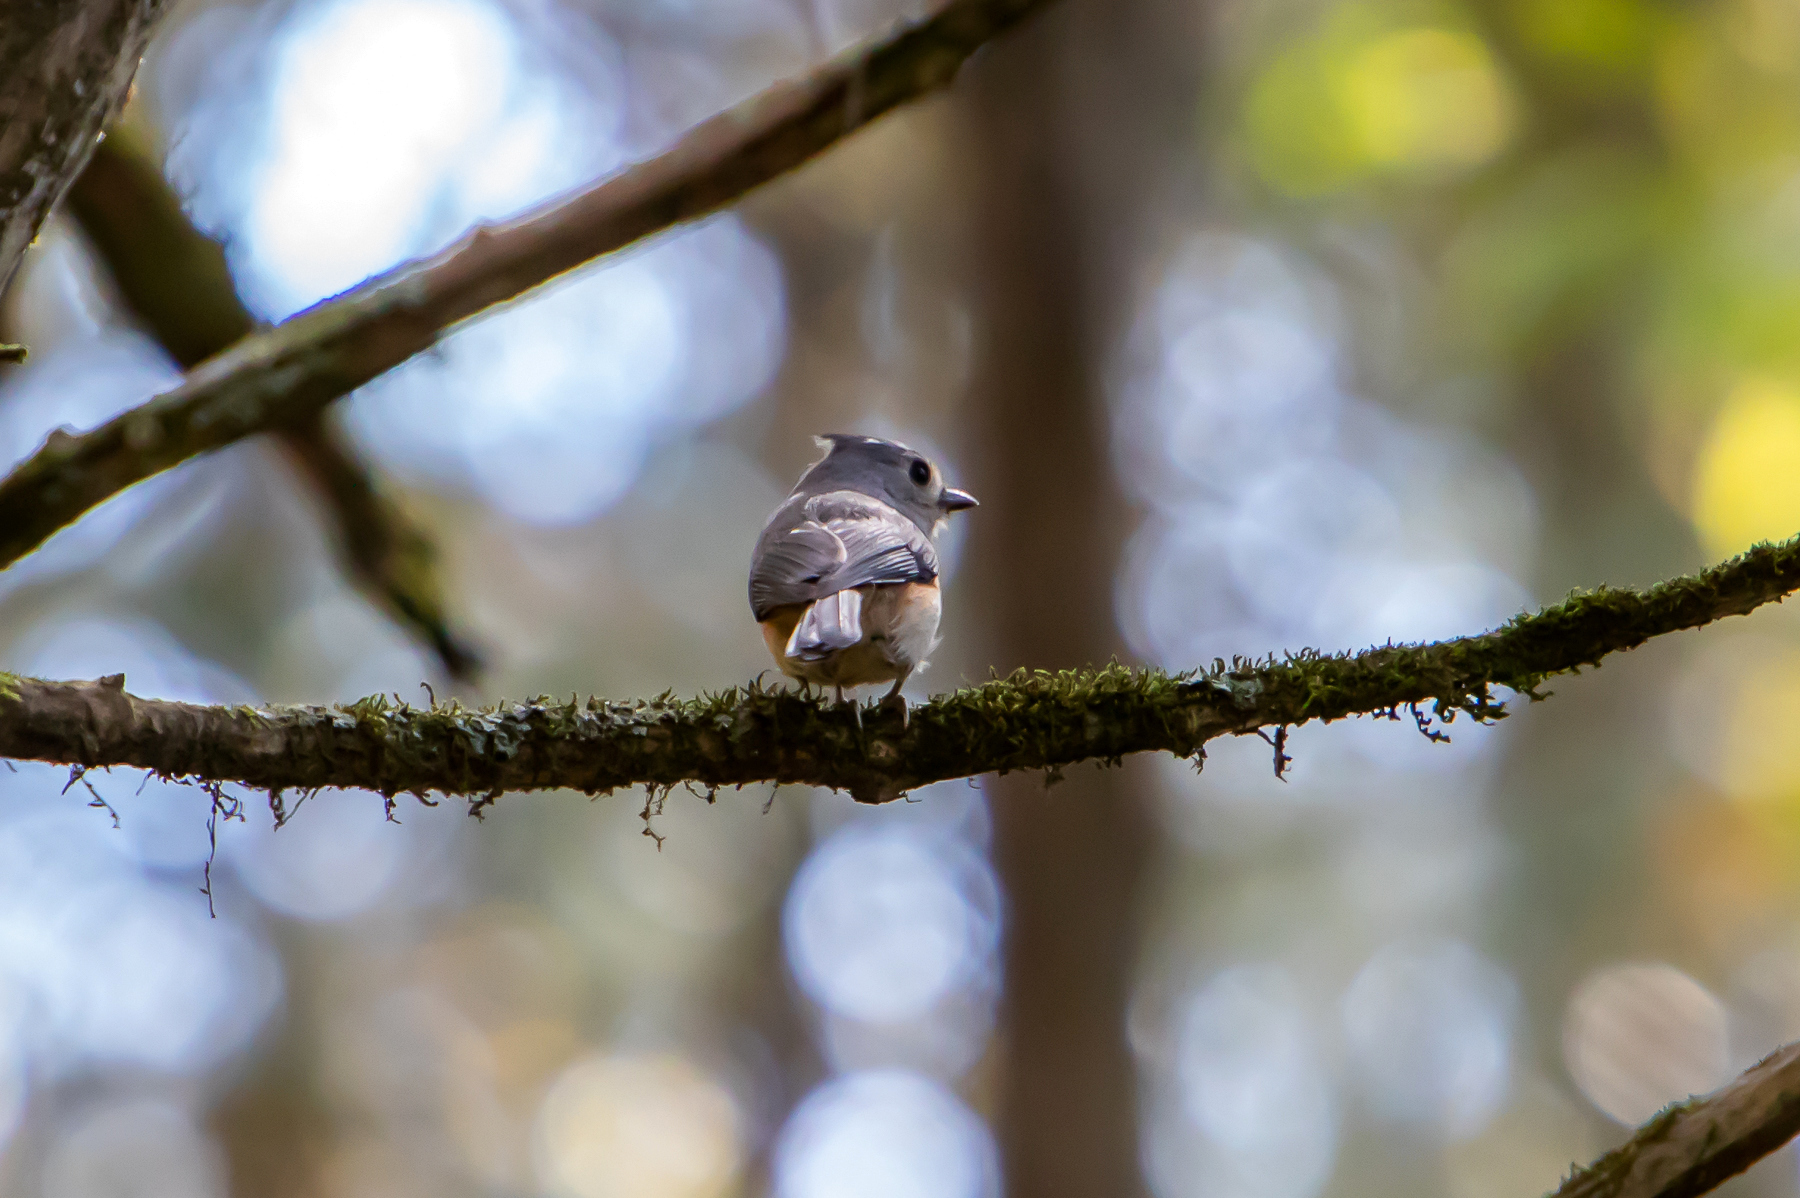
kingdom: Animalia
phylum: Chordata
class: Aves
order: Passeriformes
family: Paridae
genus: Baeolophus
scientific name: Baeolophus bicolor
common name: Tufted titmouse
